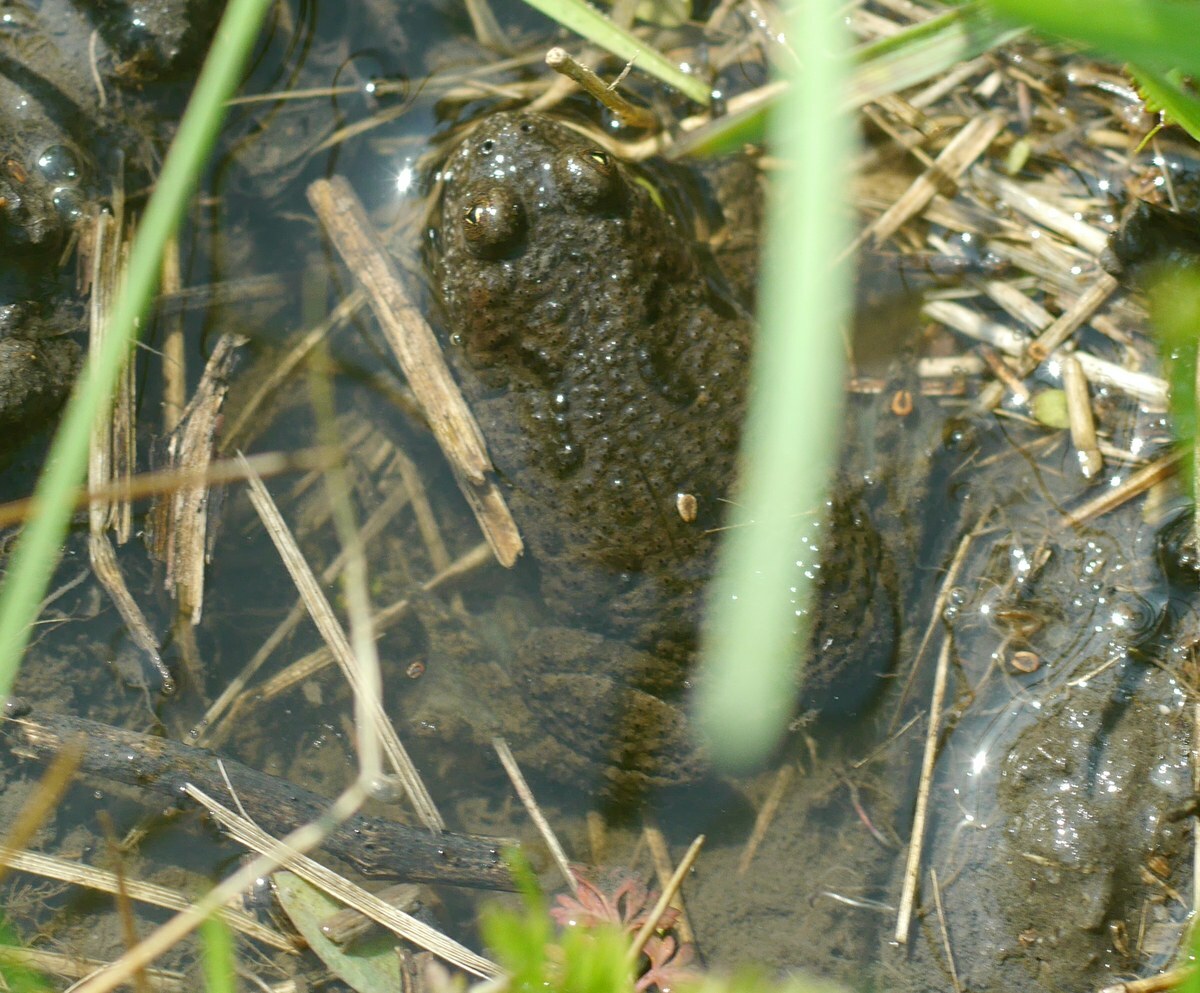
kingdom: Animalia
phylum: Chordata
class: Amphibia
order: Anura
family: Bombinatoridae
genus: Bombina
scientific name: Bombina bombina
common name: Fire-bellied toad
